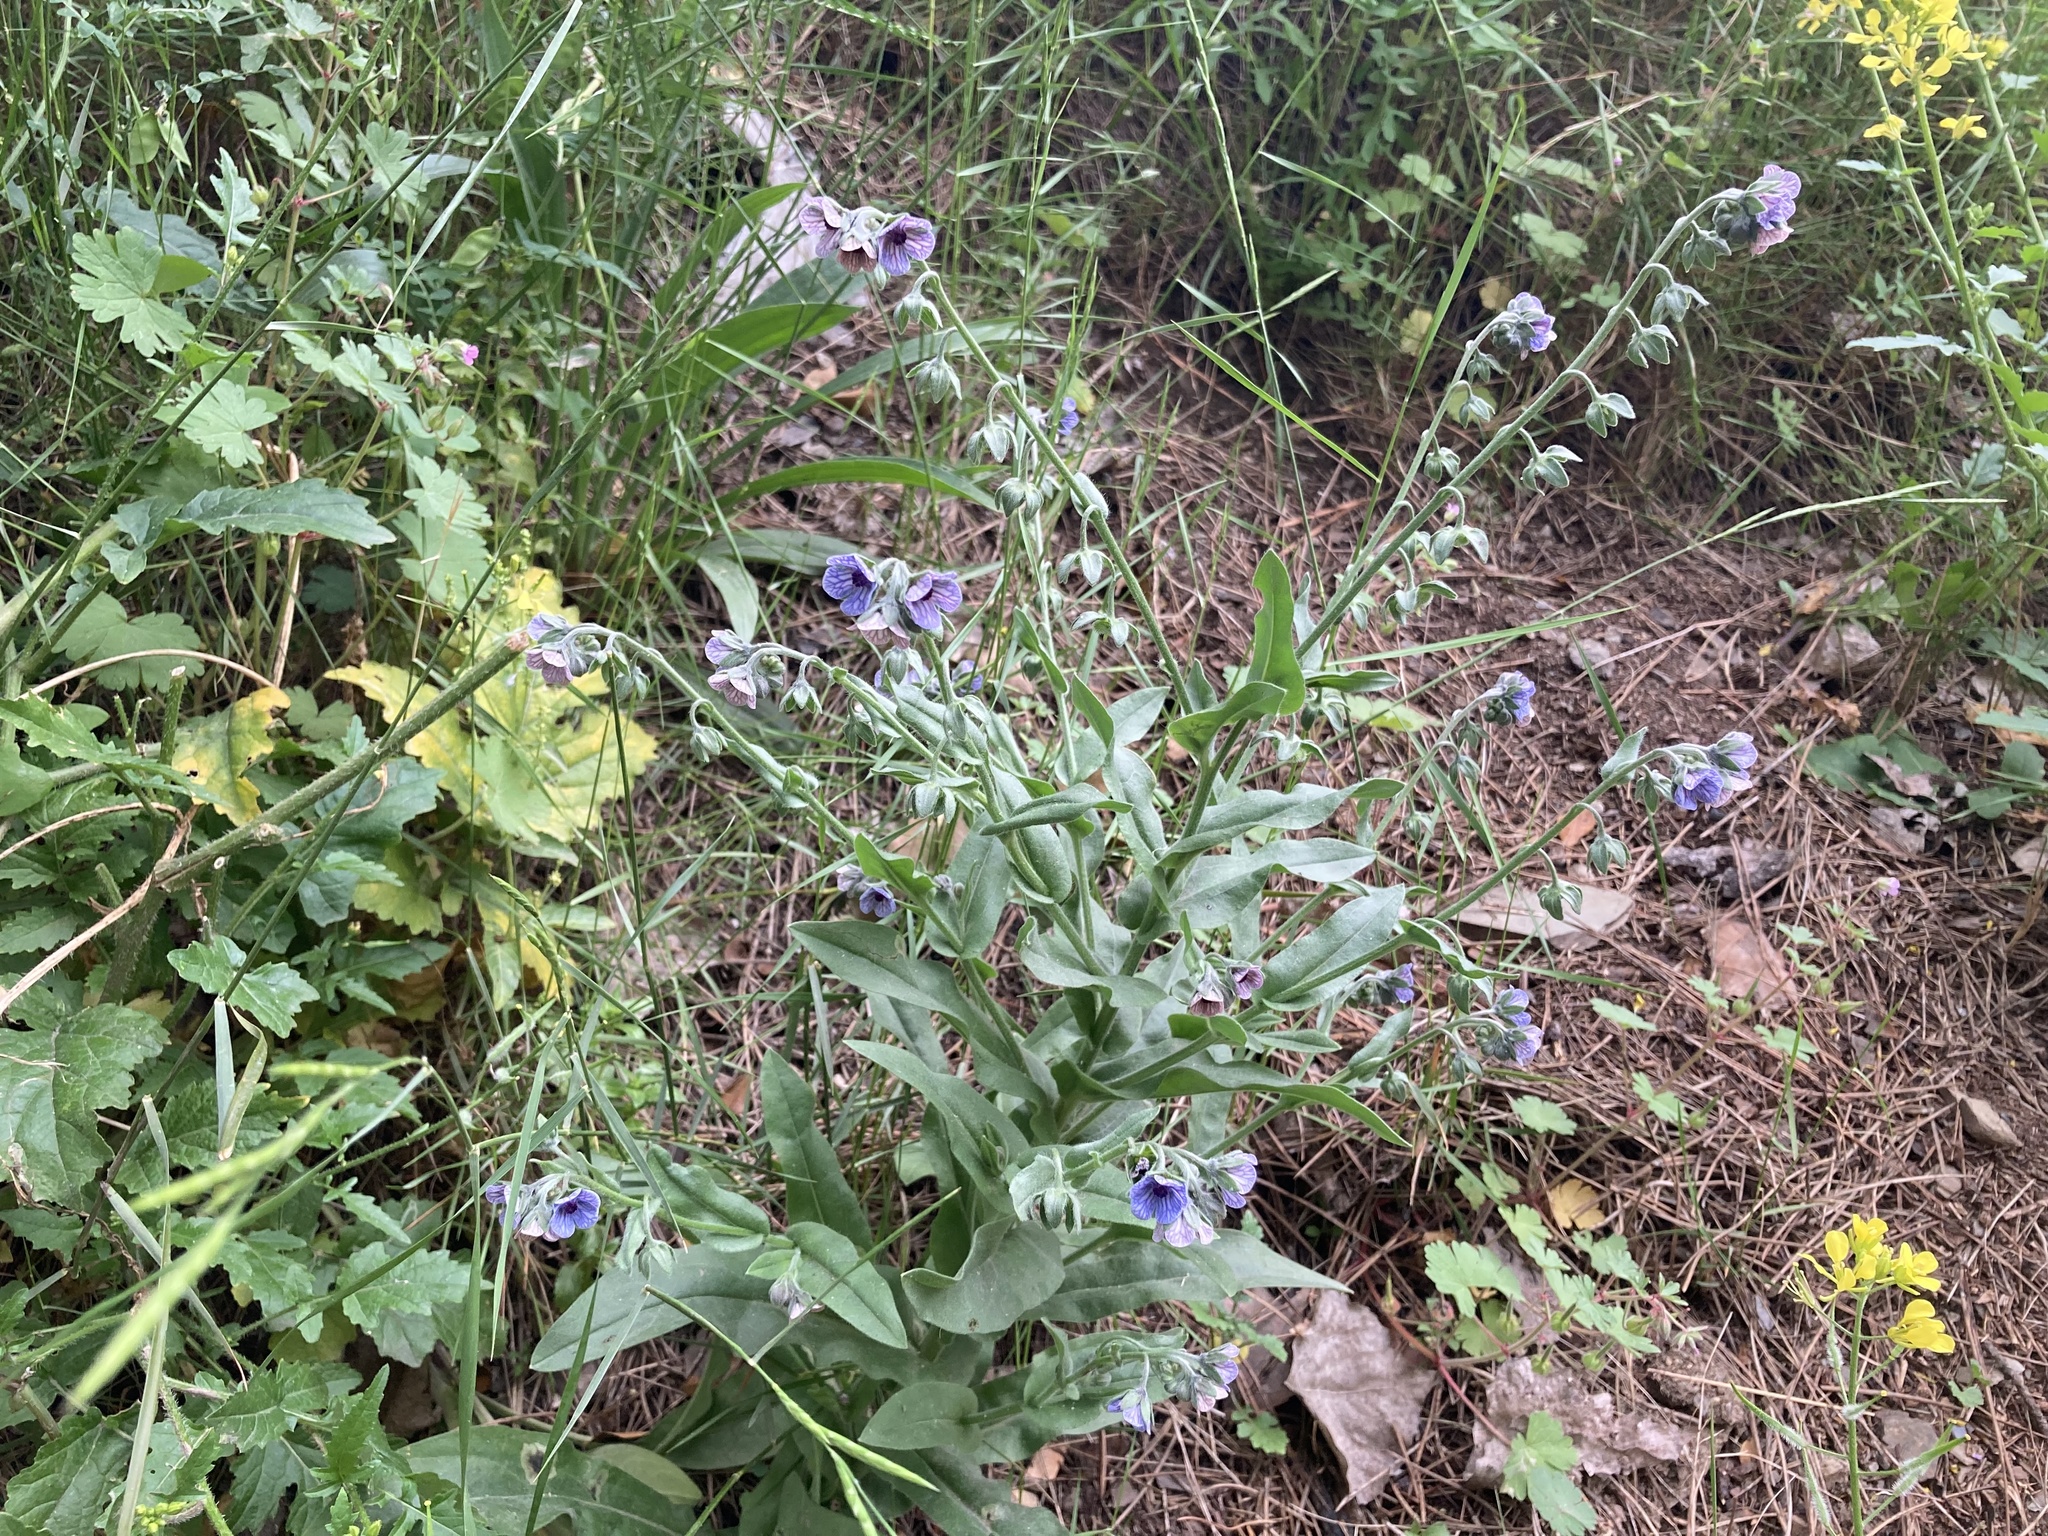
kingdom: Plantae
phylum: Tracheophyta
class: Magnoliopsida
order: Boraginales
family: Boraginaceae
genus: Cynoglossum
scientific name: Cynoglossum creticum
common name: Blue hound's tongue
